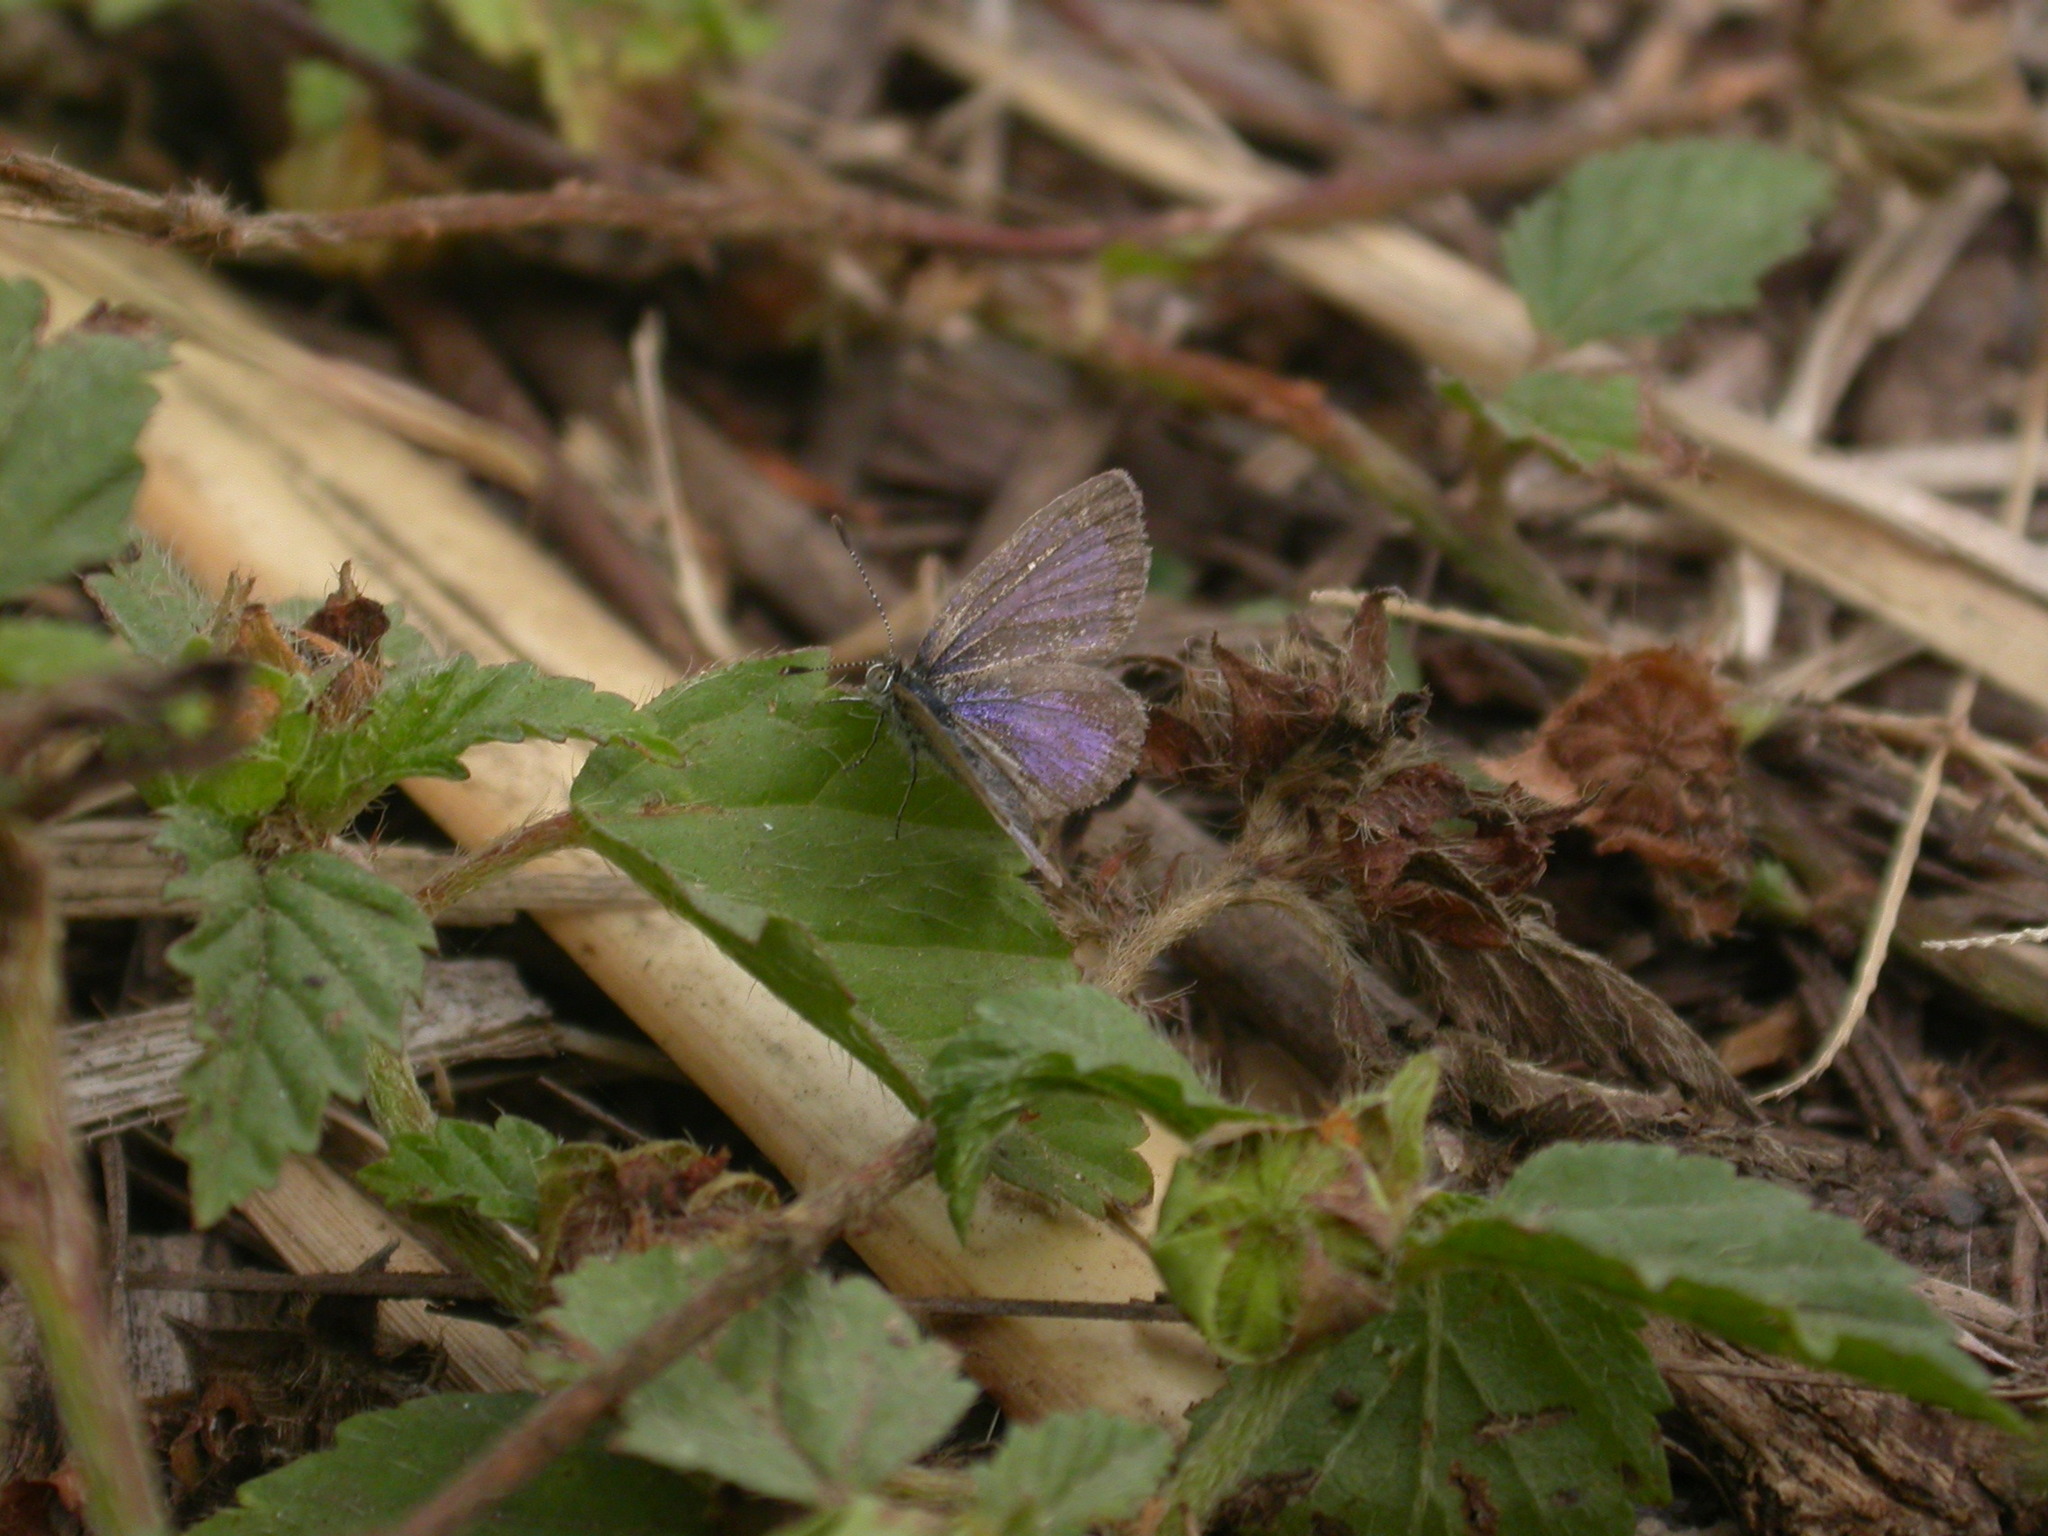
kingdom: Animalia
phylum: Arthropoda
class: Insecta
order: Lepidoptera
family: Lycaenidae
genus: Zizeeria
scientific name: Zizeeria knysna
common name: African grass blue
